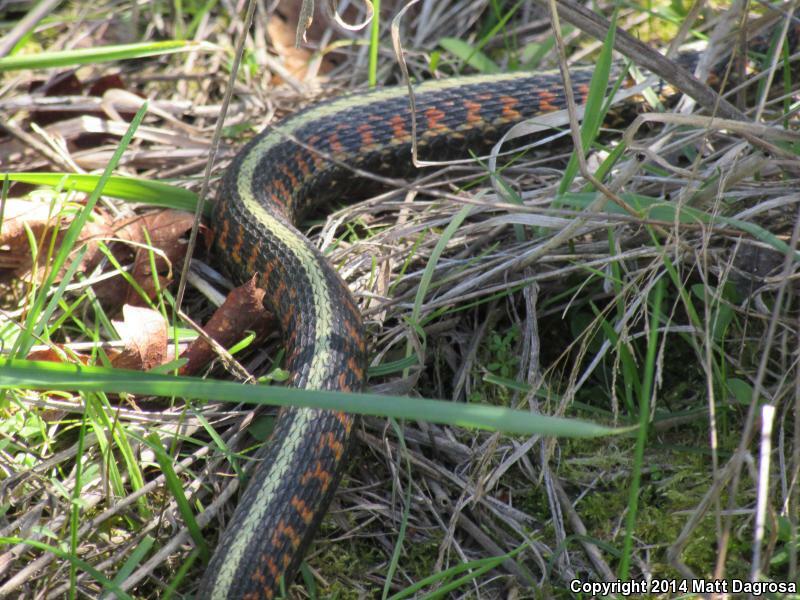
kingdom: Animalia
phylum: Chordata
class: Squamata
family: Colubridae
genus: Thamnophis
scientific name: Thamnophis sirtalis
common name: Common garter snake
